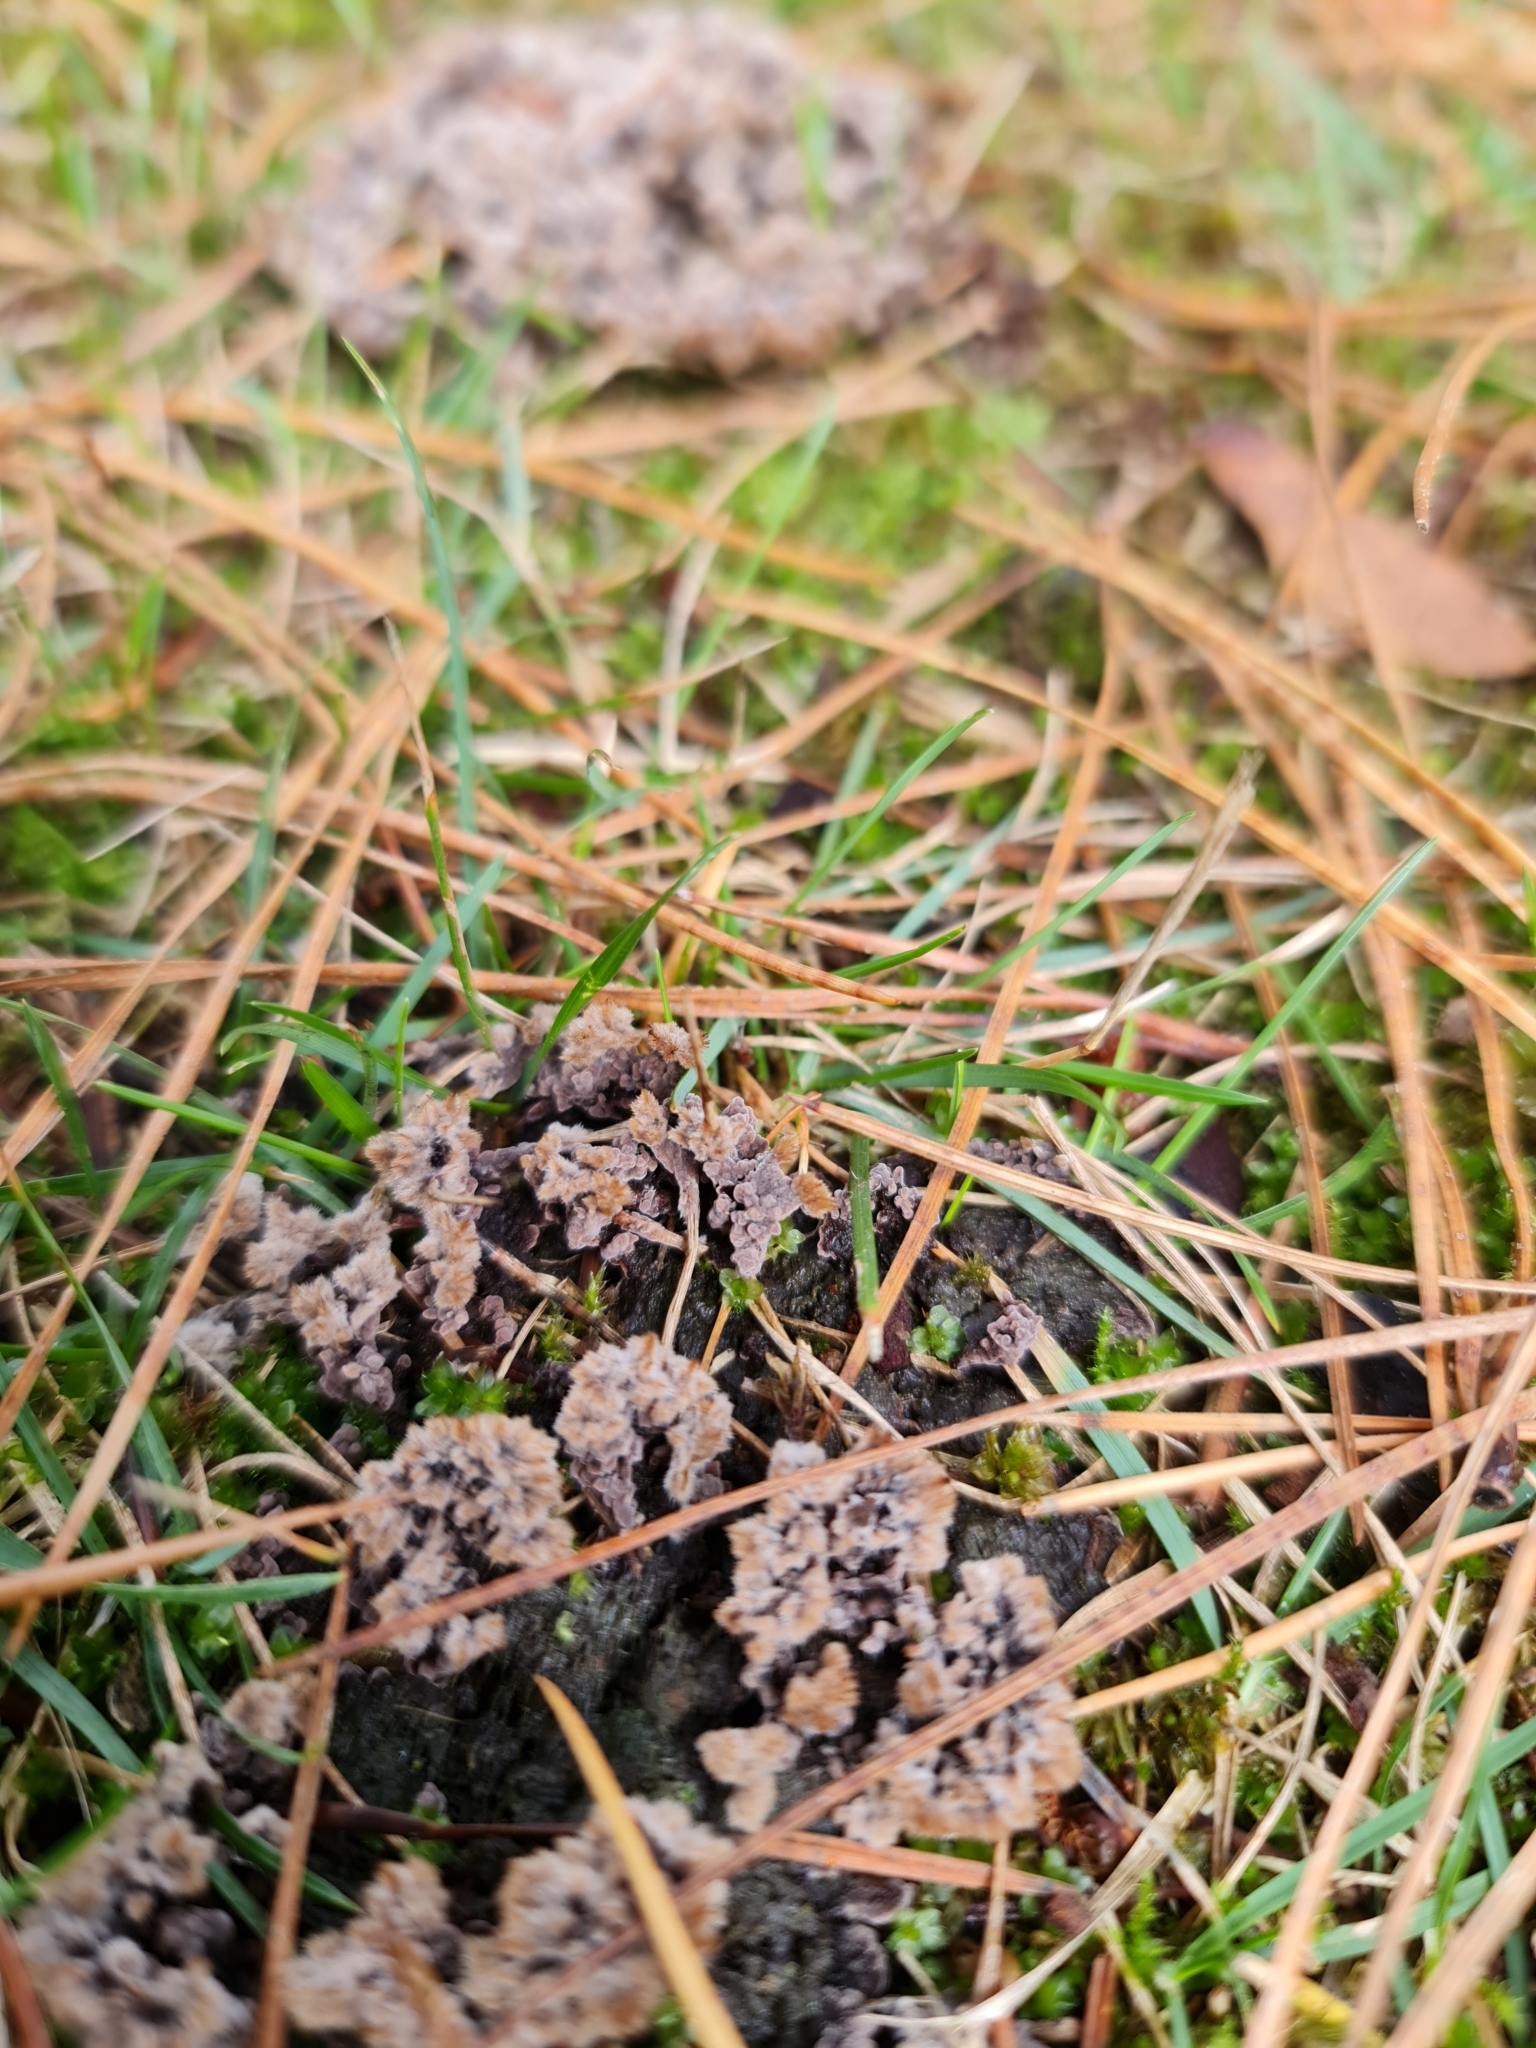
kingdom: Fungi
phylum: Basidiomycota
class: Agaricomycetes
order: Thelephorales
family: Thelephoraceae
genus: Thelephora
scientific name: Thelephora terrestris
